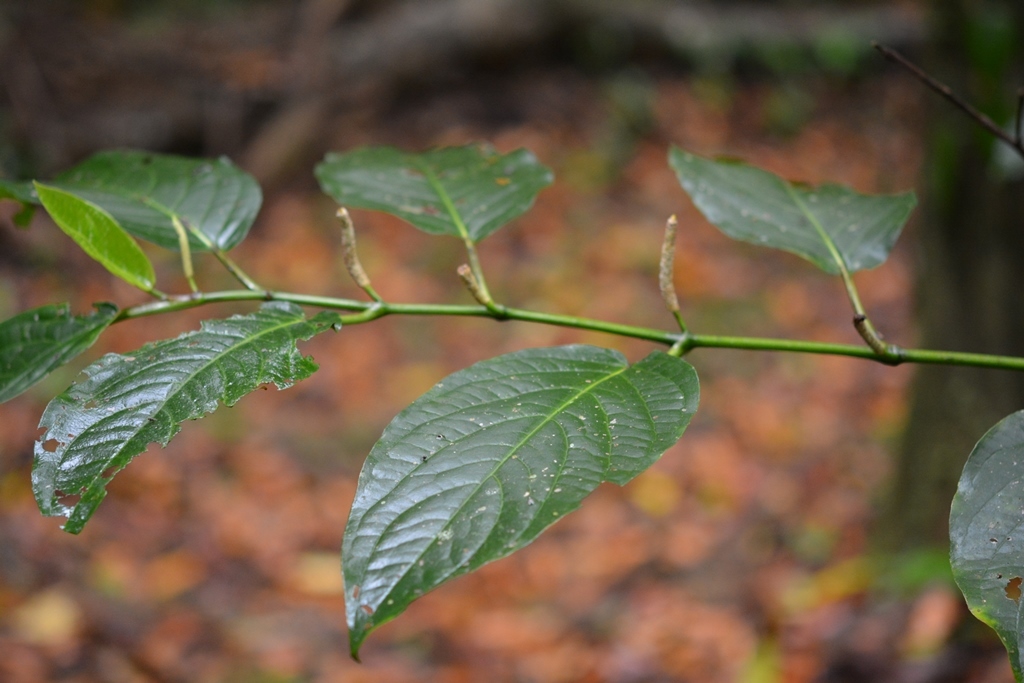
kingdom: Plantae
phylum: Tracheophyta
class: Magnoliopsida
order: Piperales
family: Piperaceae
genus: Piper
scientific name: Piper jacquemontianum
